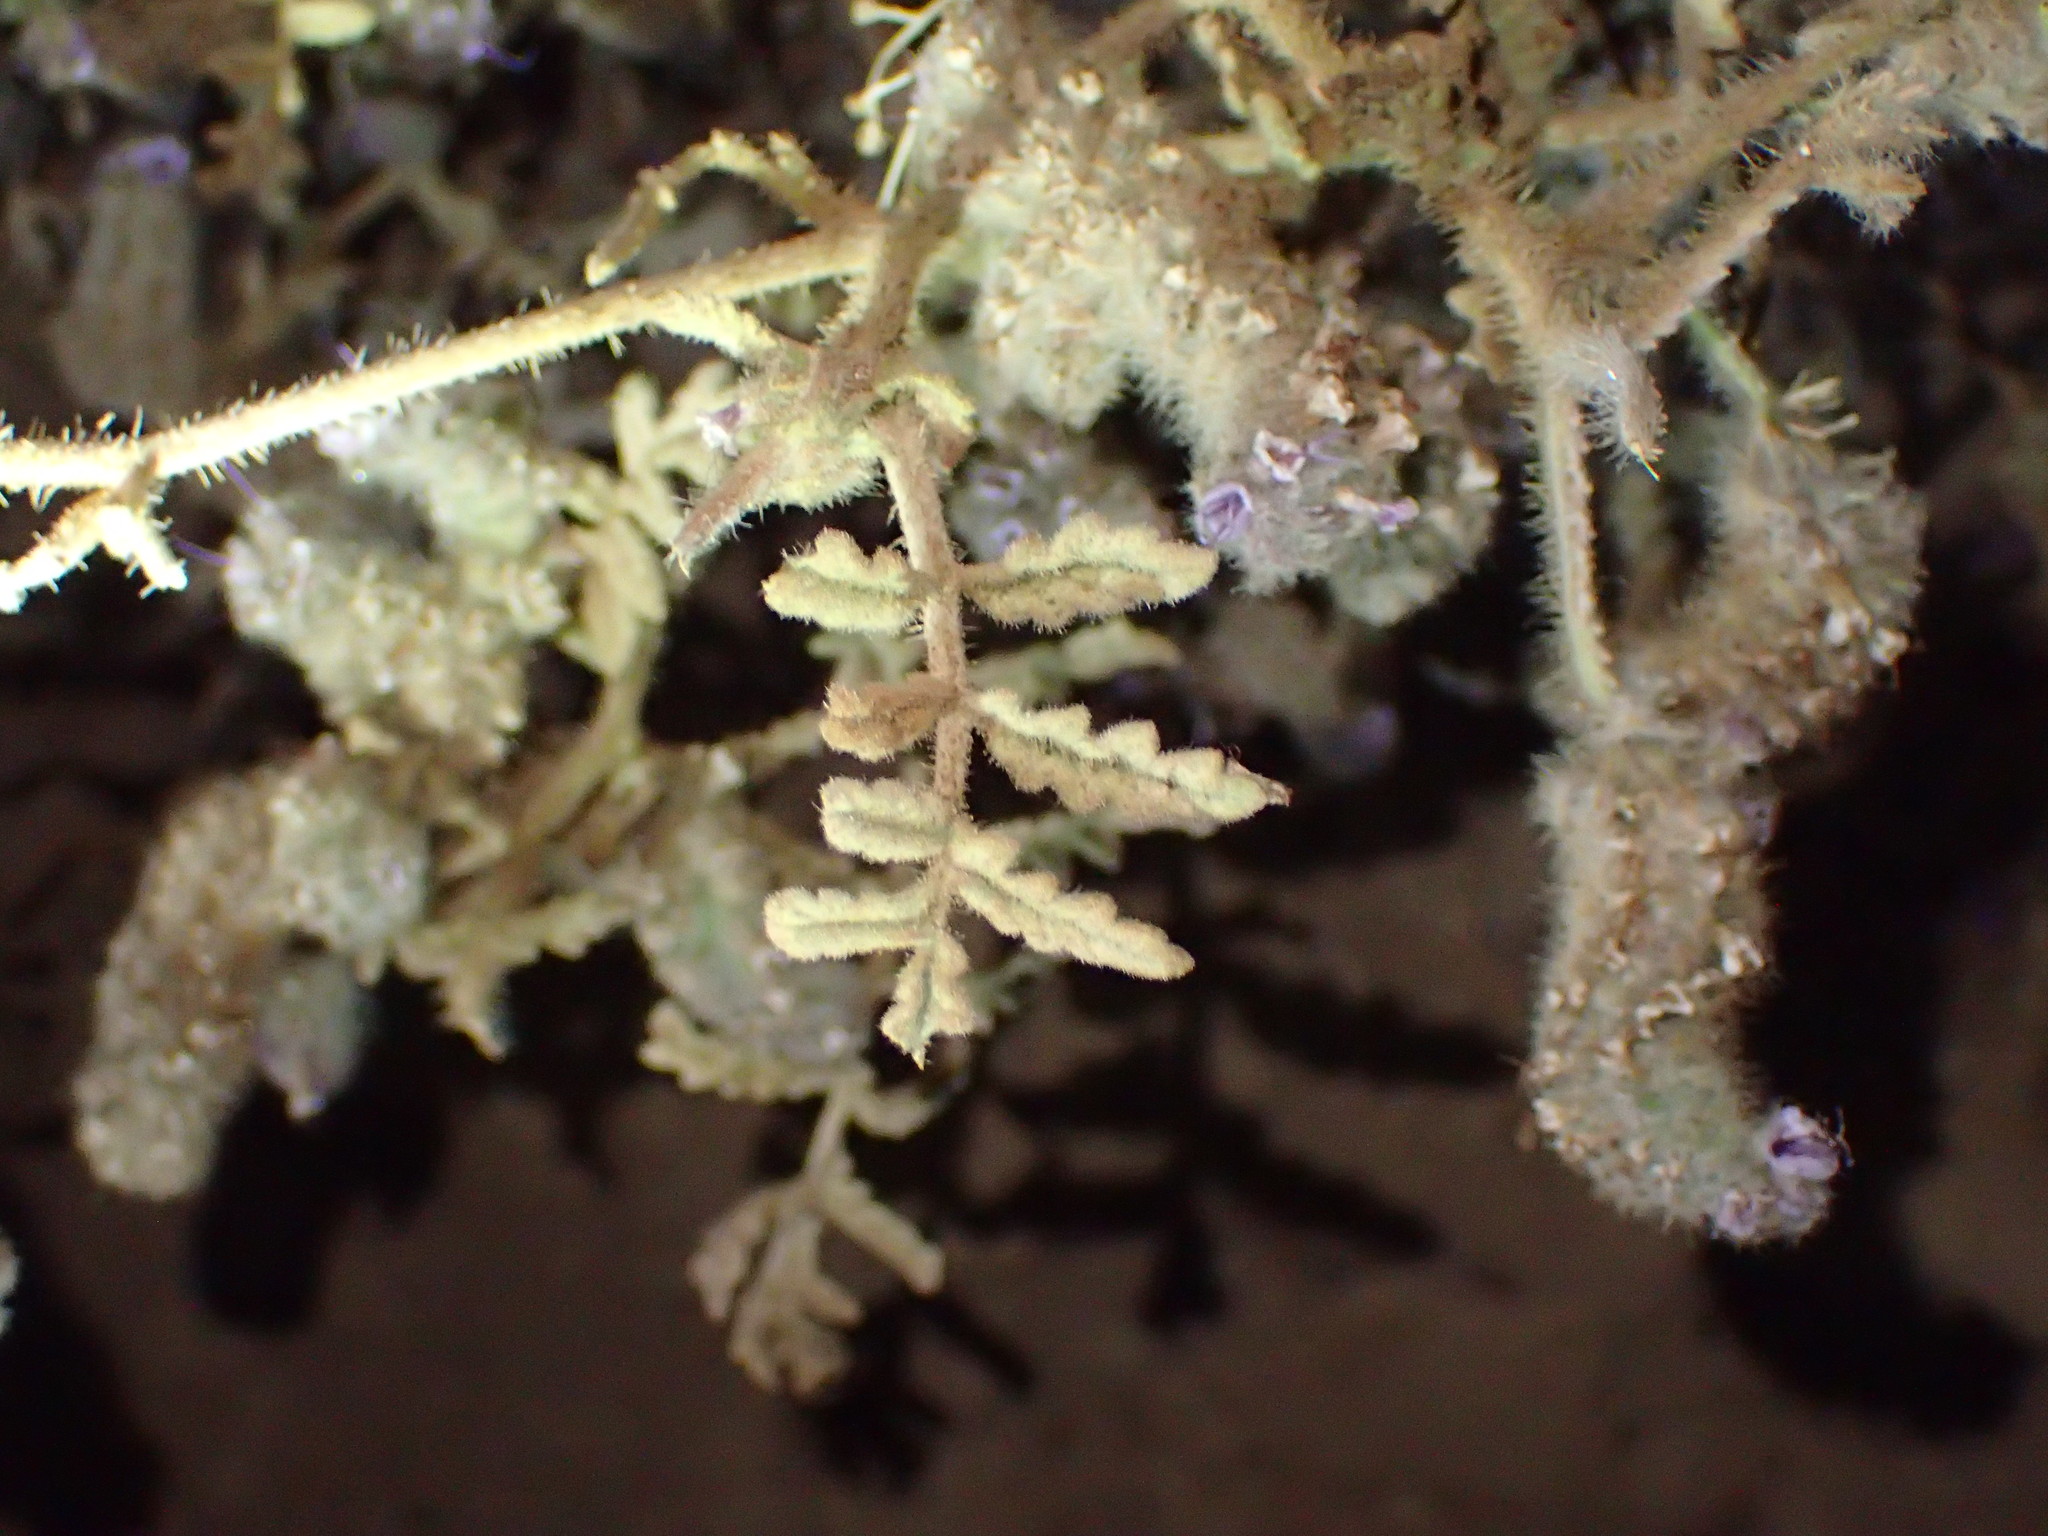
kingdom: Plantae
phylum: Tracheophyta
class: Magnoliopsida
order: Boraginales
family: Hydrophyllaceae
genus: Phacelia
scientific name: Phacelia ramosissima
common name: Branching phacelia
